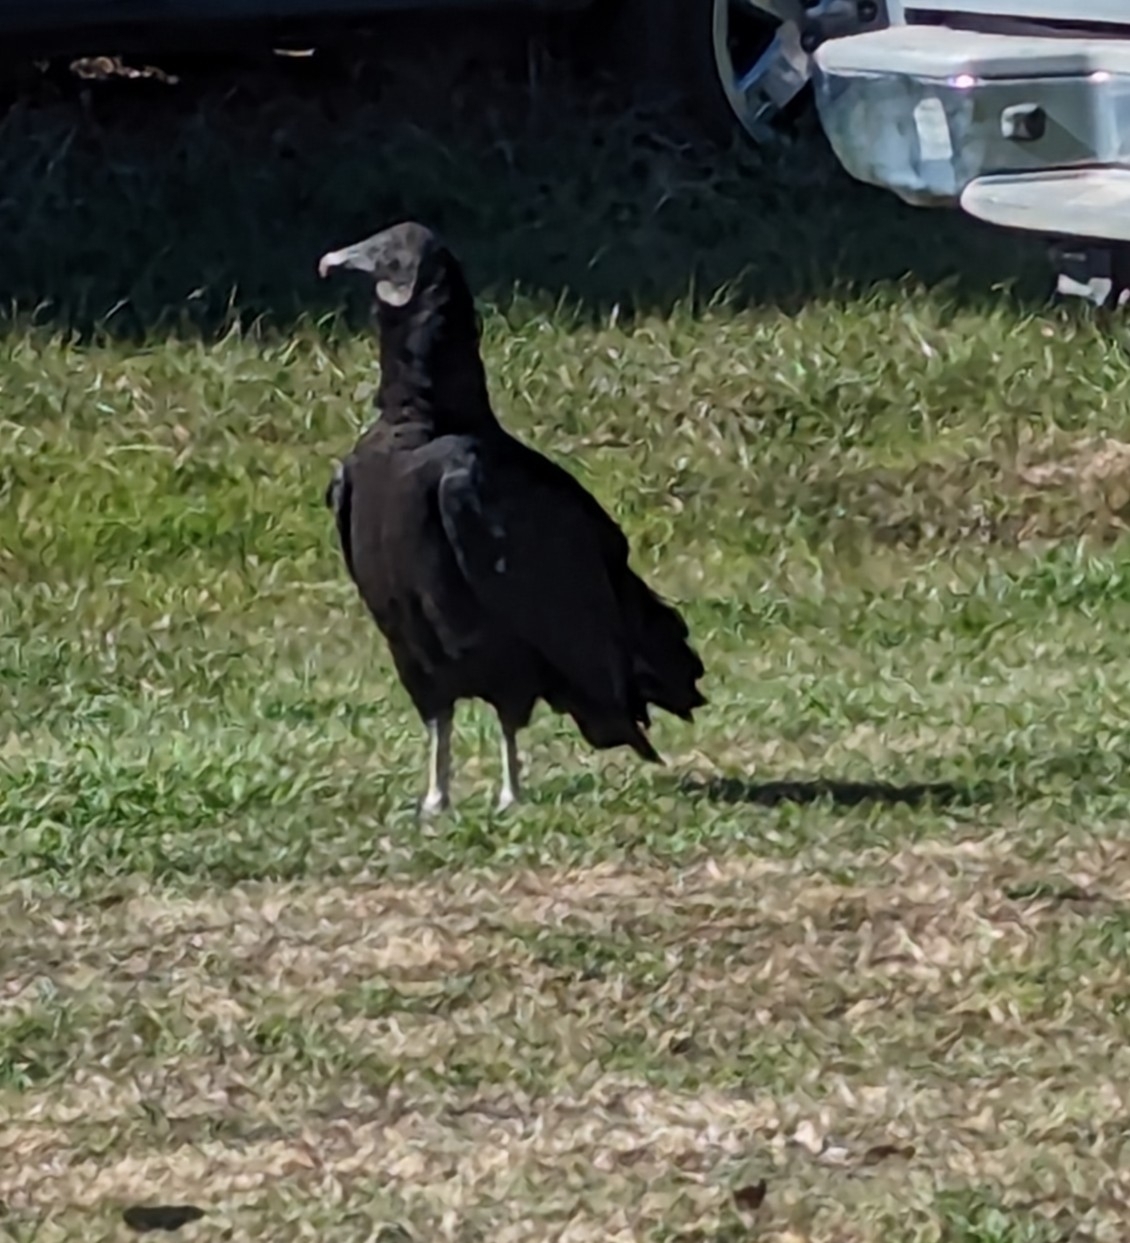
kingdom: Animalia
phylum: Chordata
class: Aves
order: Accipitriformes
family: Cathartidae
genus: Coragyps
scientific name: Coragyps atratus
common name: Black vulture
